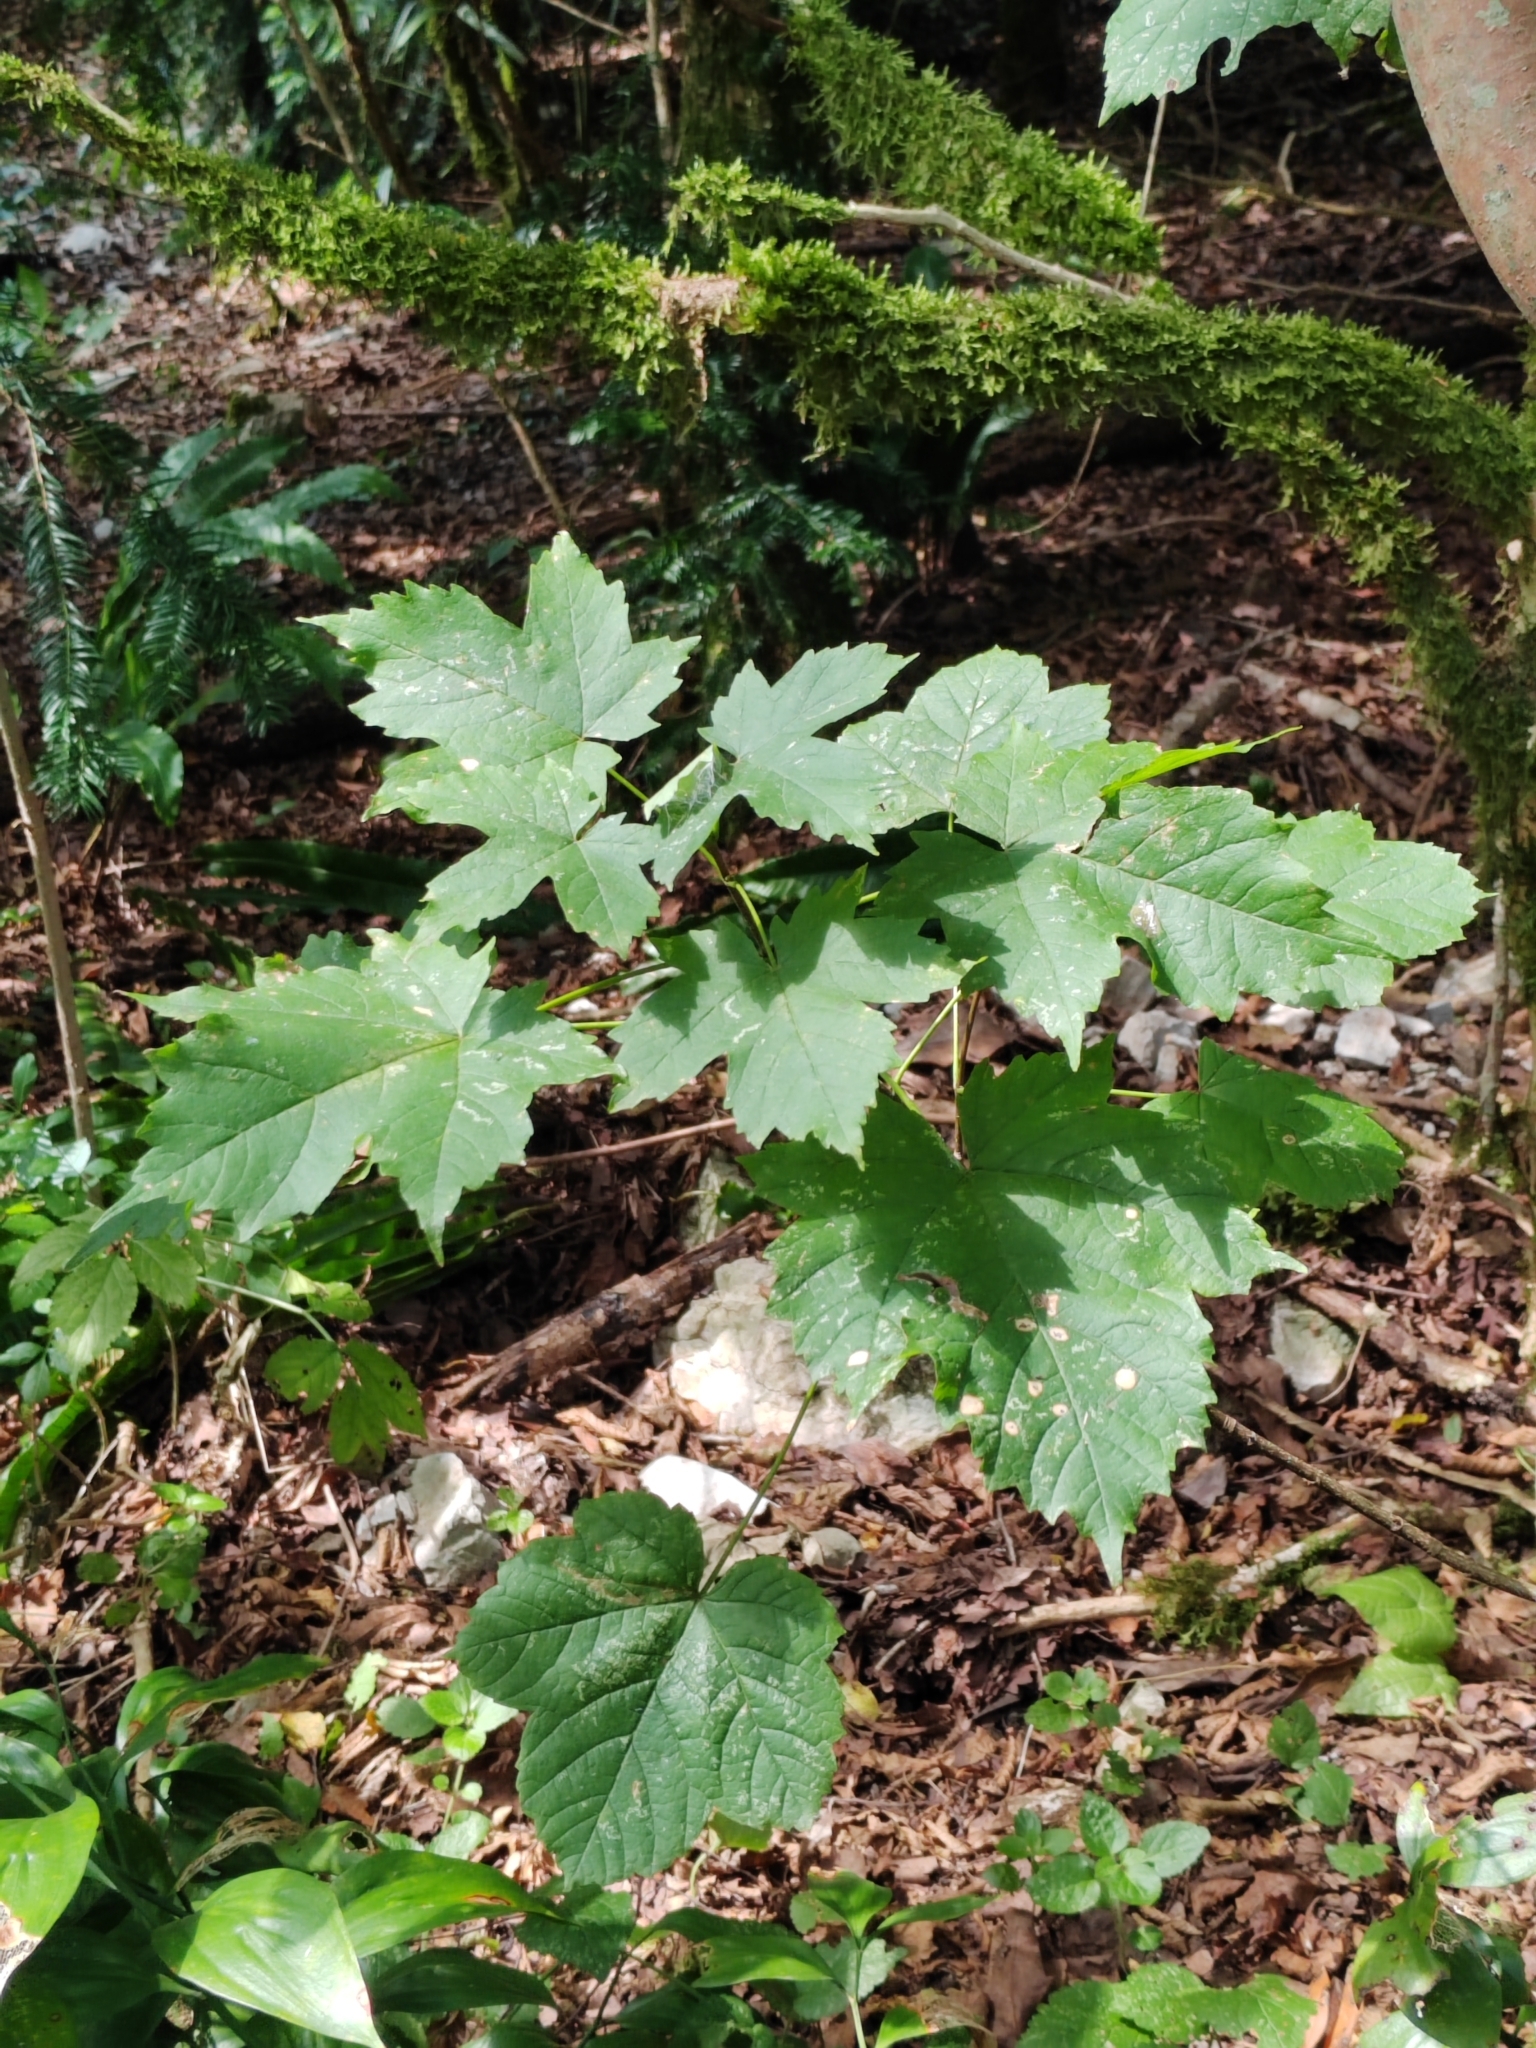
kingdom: Plantae
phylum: Tracheophyta
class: Magnoliopsida
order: Sapindales
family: Sapindaceae
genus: Acer
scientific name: Acer pseudoplatanus
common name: Sycamore
